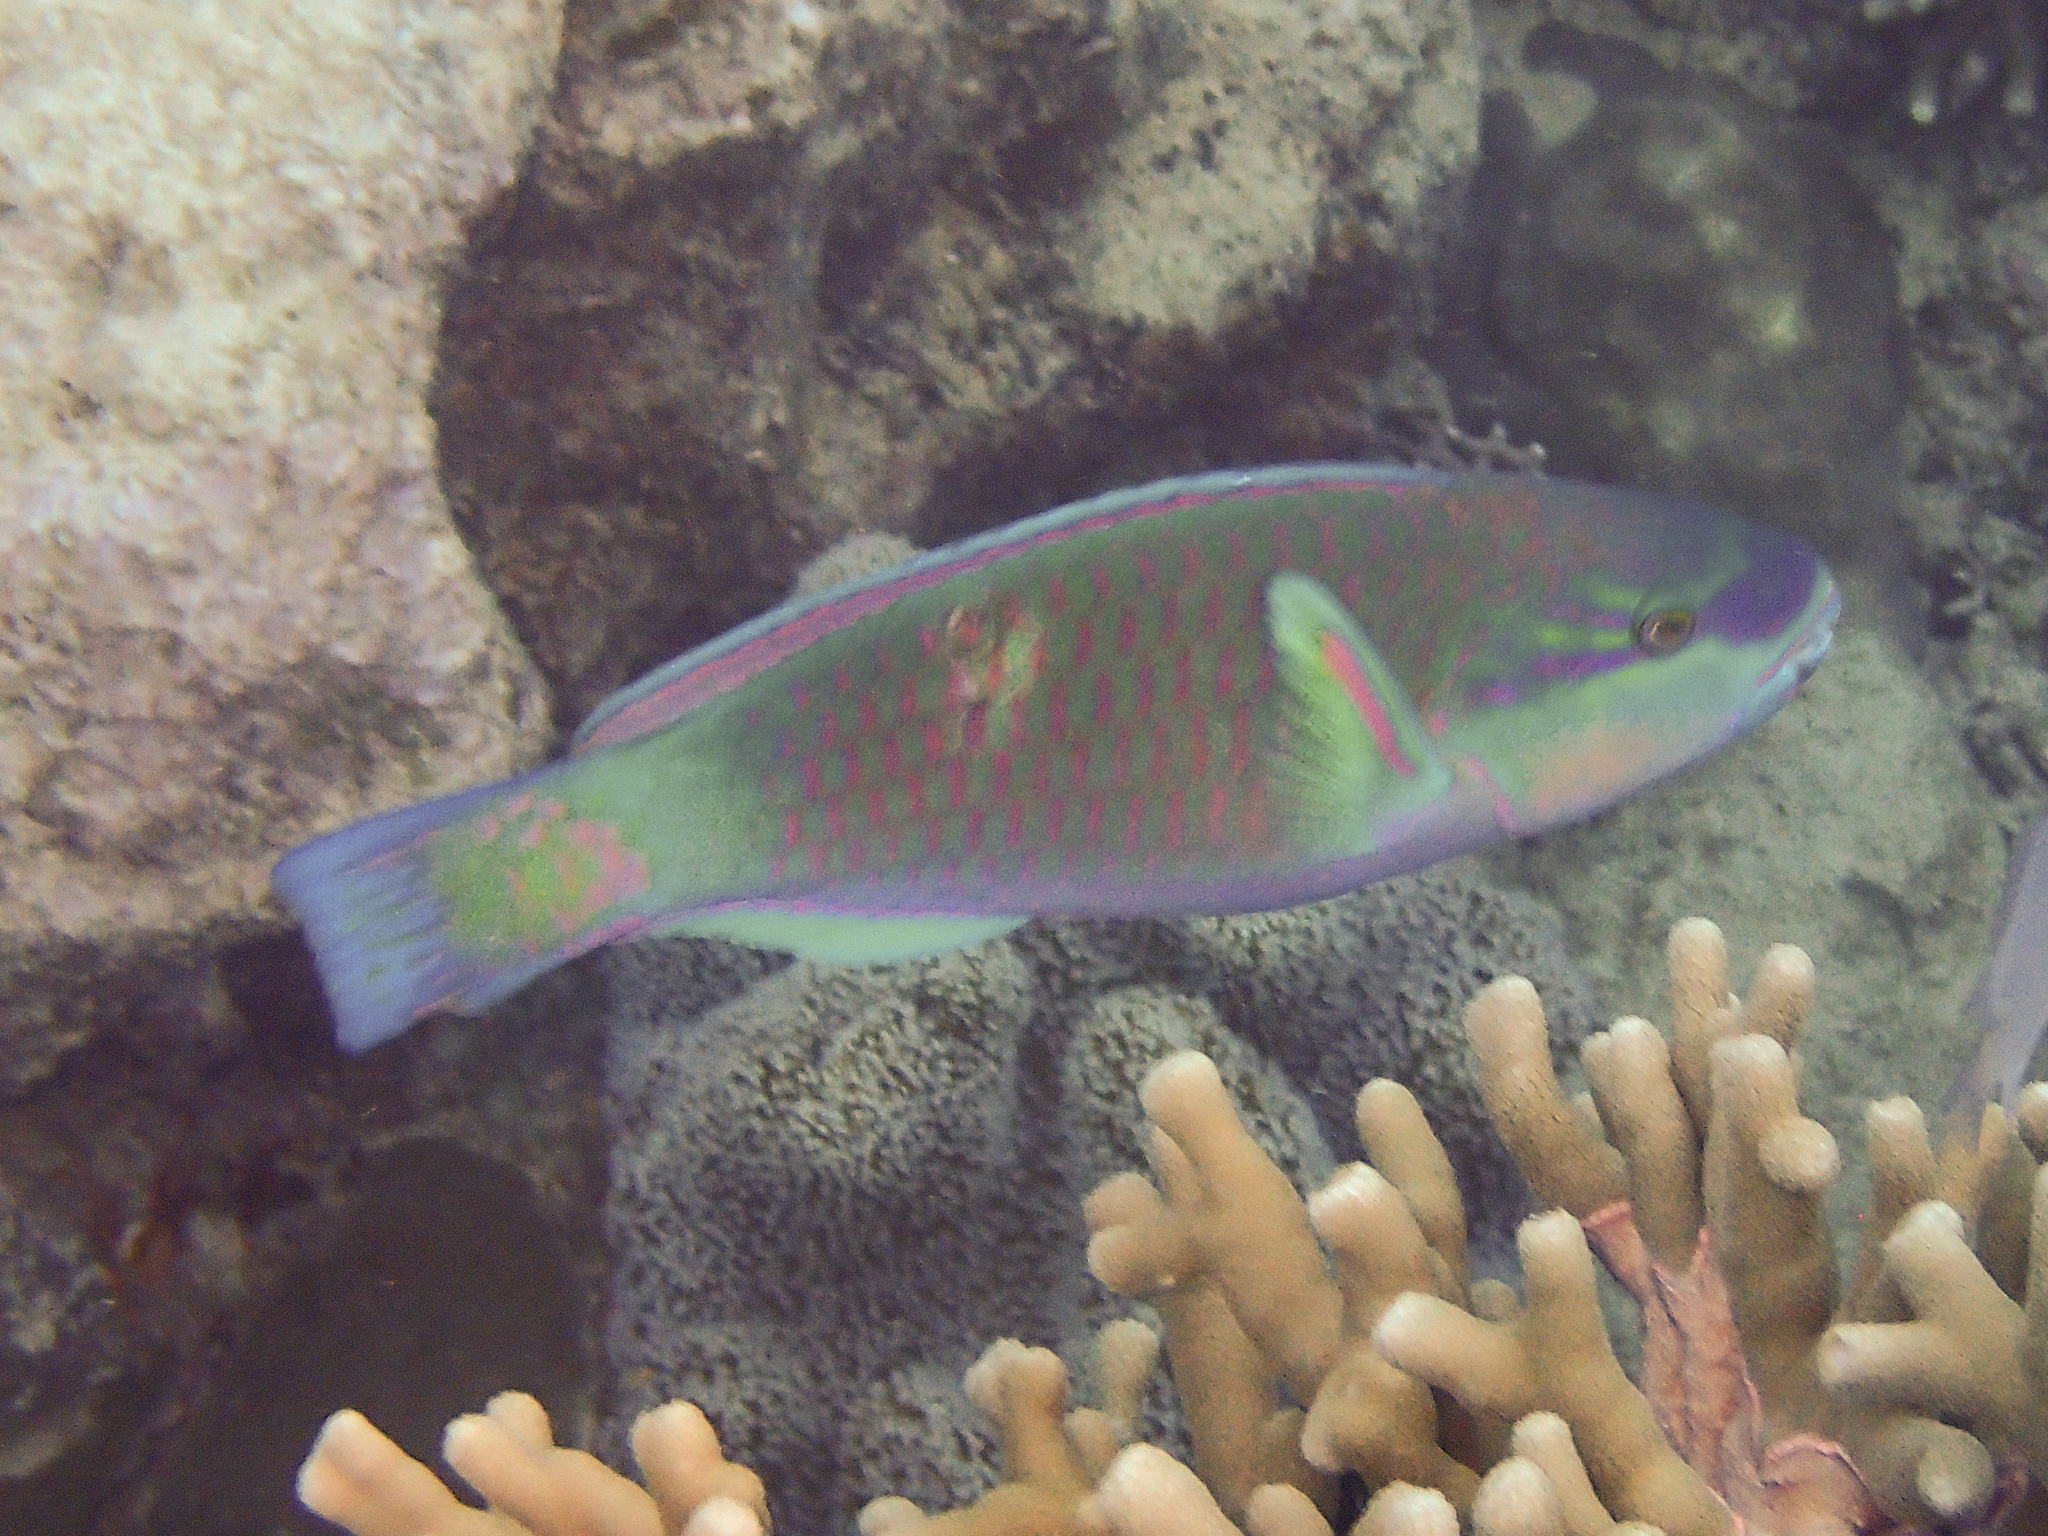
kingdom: Animalia
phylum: Chordata
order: Perciformes
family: Scaridae
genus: Chlorurus
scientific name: Chlorurus spilurus
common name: Bullethead parrotfish
